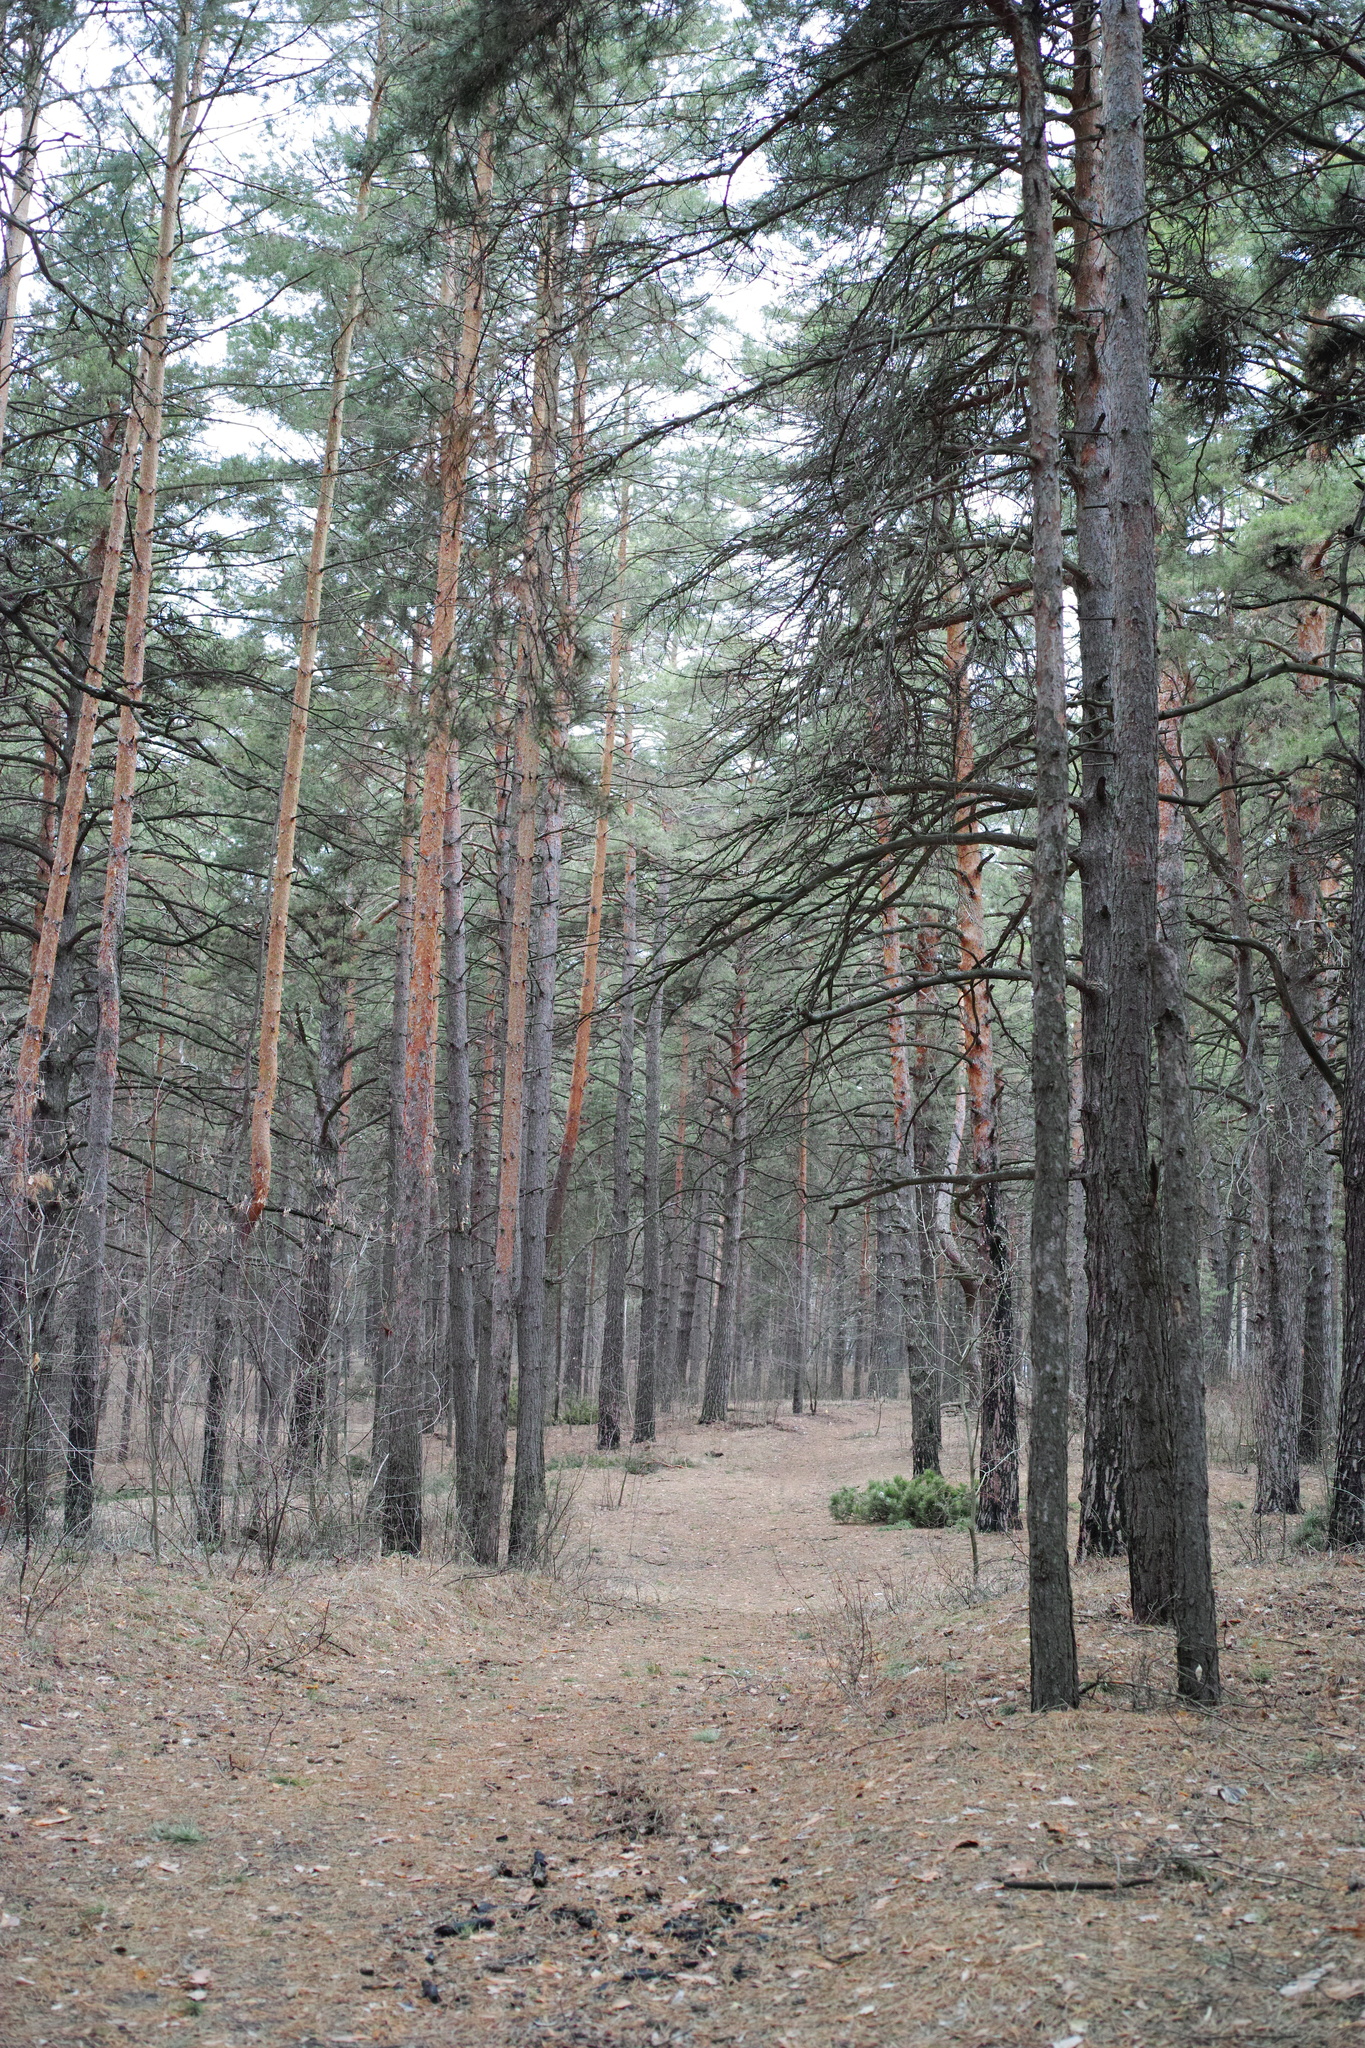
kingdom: Plantae
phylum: Tracheophyta
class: Pinopsida
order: Pinales
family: Pinaceae
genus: Pinus
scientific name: Pinus sylvestris
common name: Scots pine
